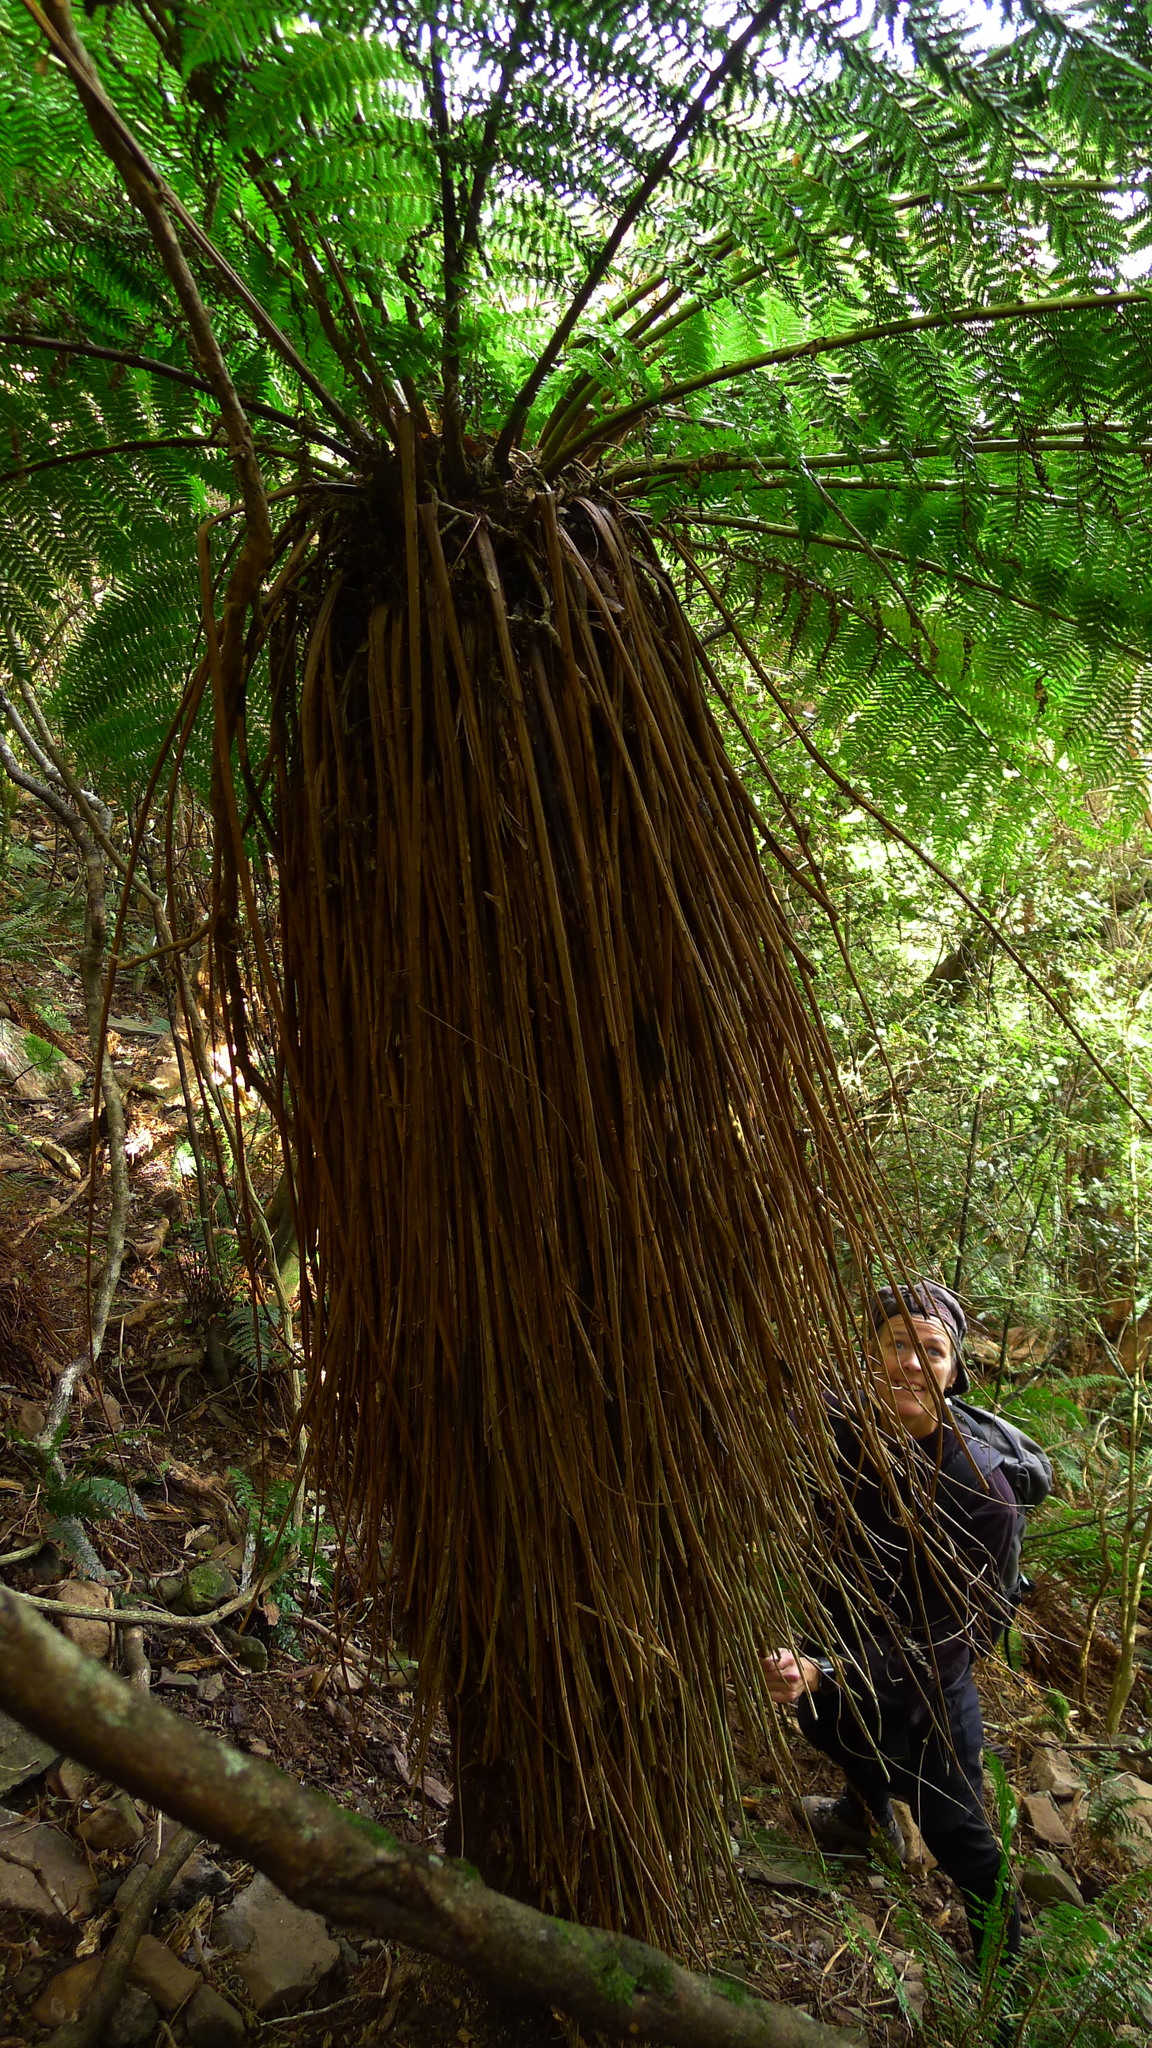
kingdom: Plantae
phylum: Tracheophyta
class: Polypodiopsida
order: Cyatheales
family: Cyatheaceae
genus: Alsophila
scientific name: Alsophila smithii
